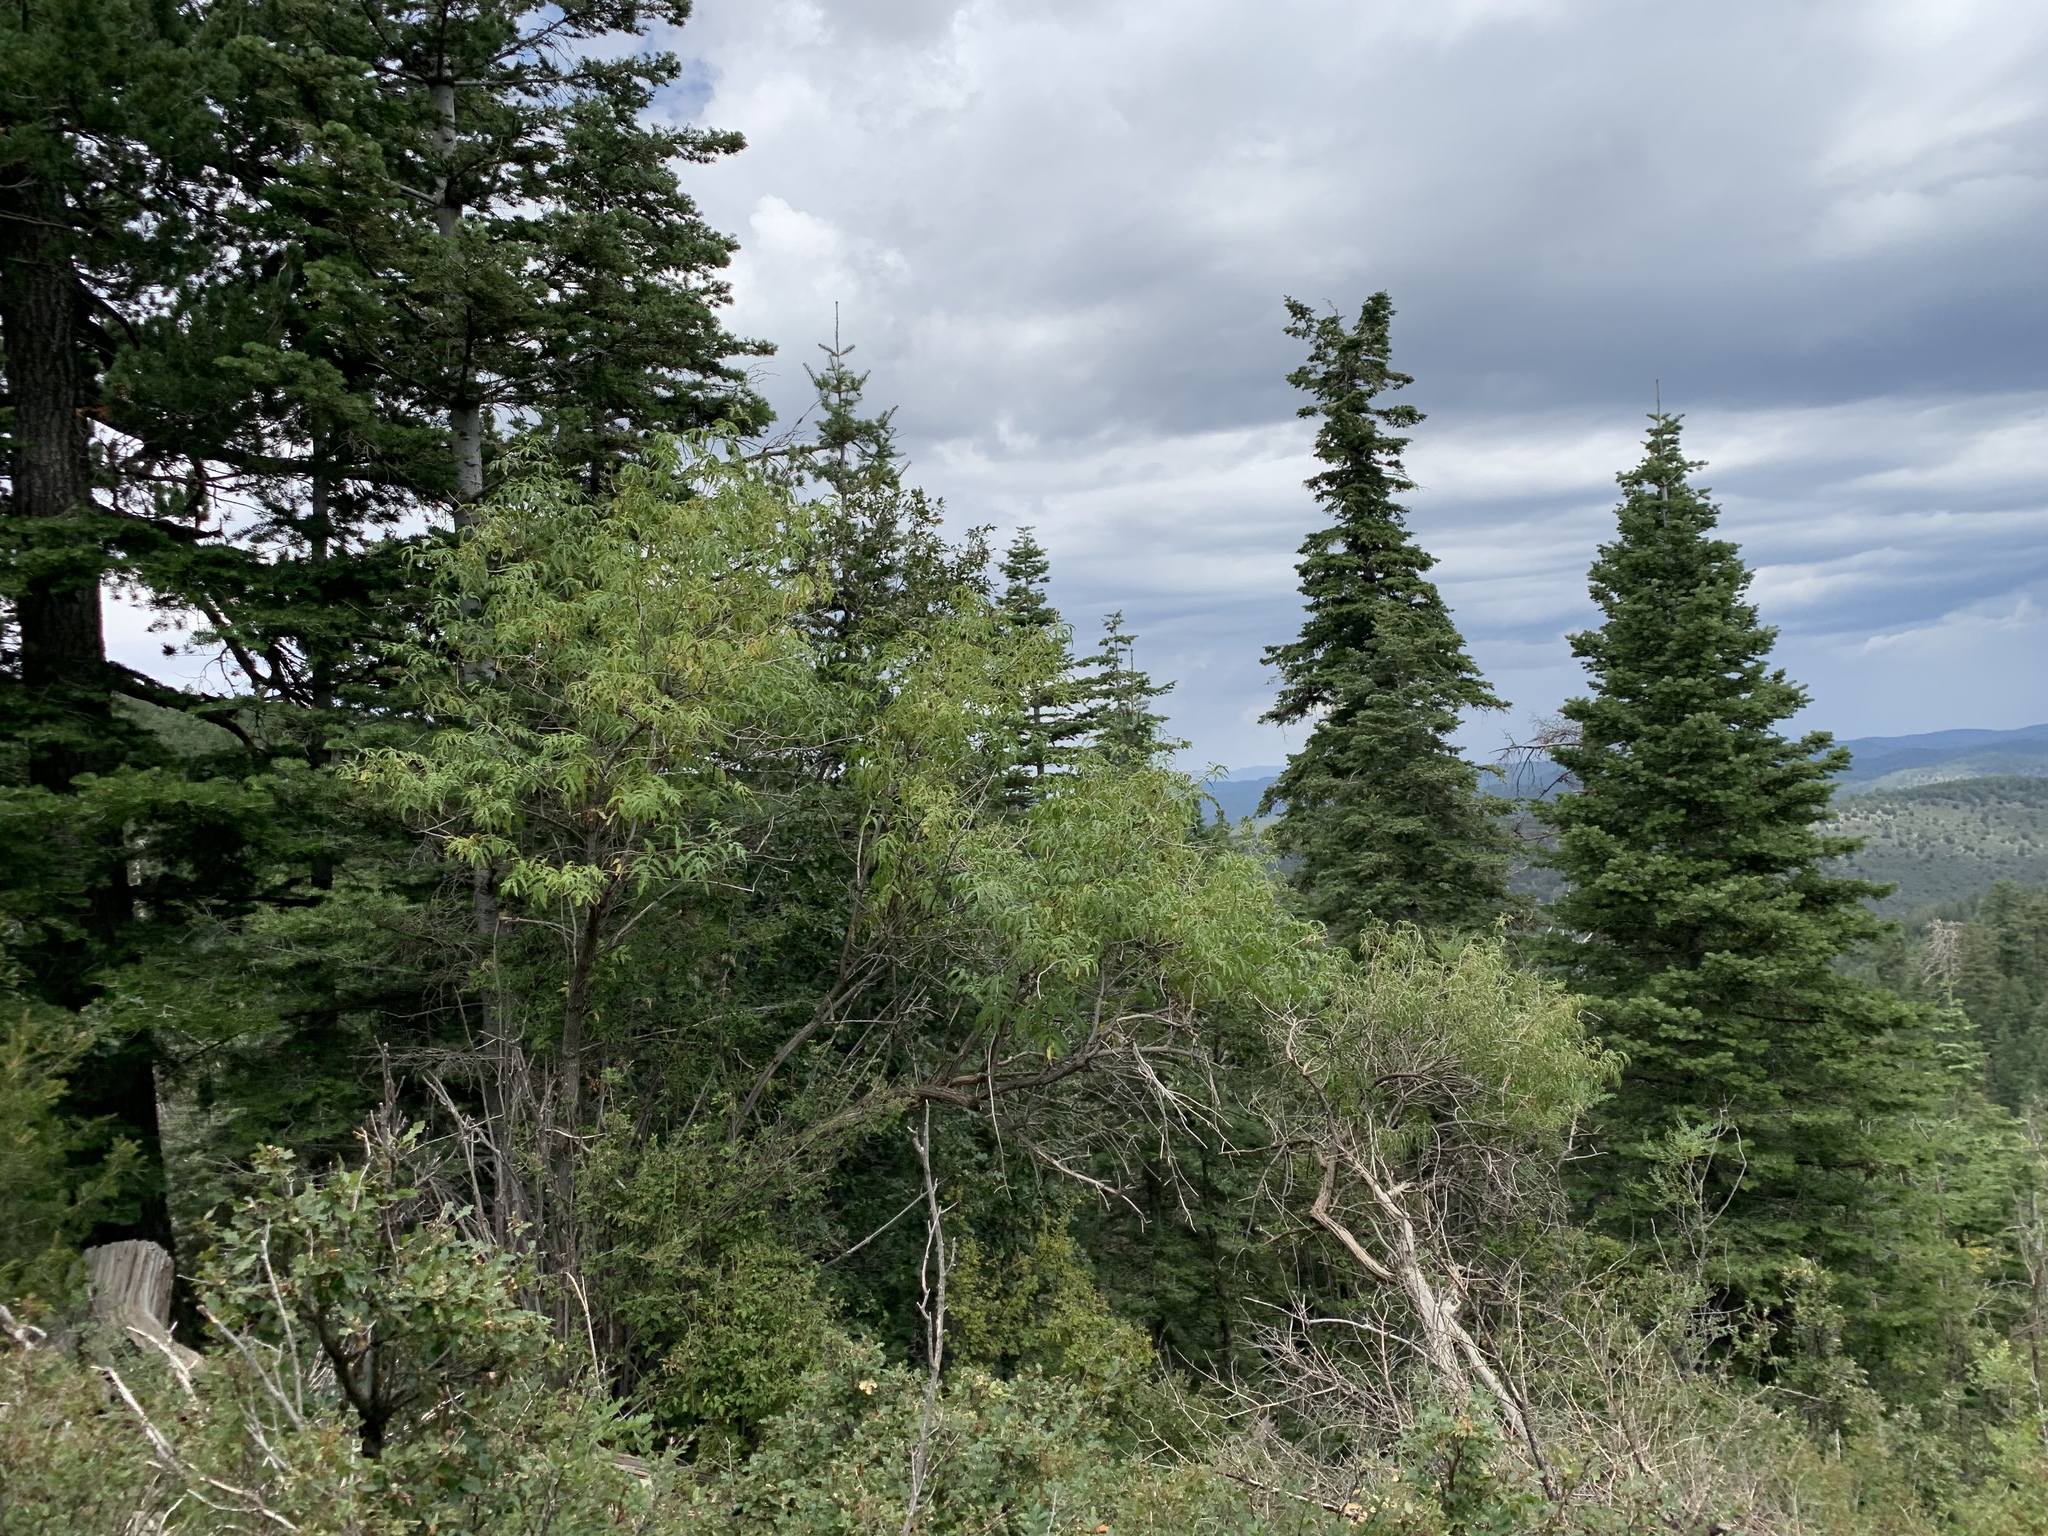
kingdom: Plantae
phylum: Tracheophyta
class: Magnoliopsida
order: Dipsacales
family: Viburnaceae
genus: Sambucus
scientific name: Sambucus cerulea
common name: Blue elder
